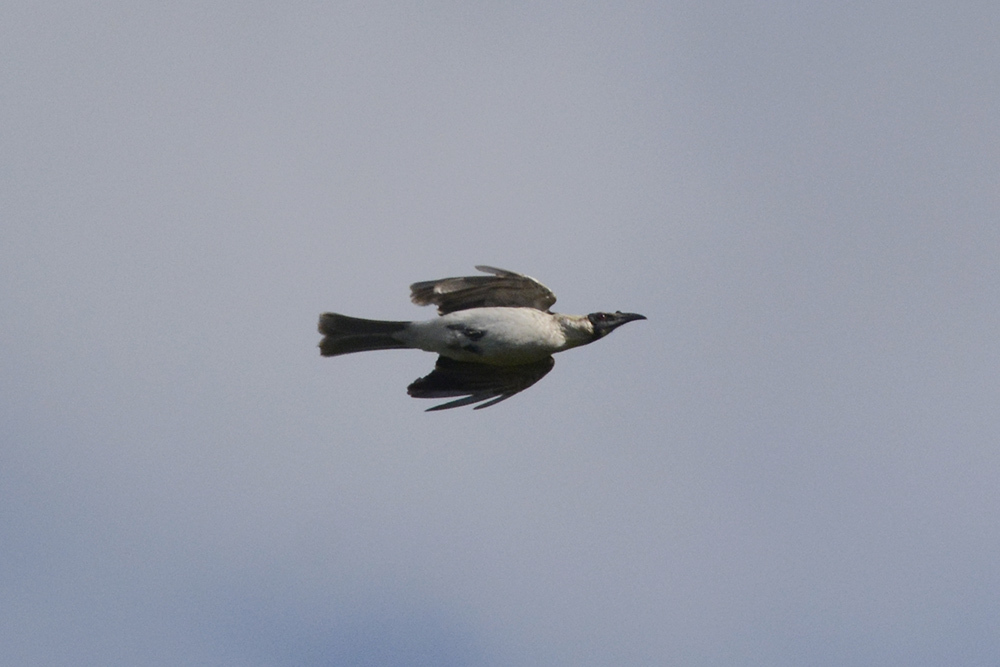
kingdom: Animalia
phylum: Chordata
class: Aves
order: Passeriformes
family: Meliphagidae
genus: Philemon
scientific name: Philemon corniculatus
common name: Noisy friarbird
